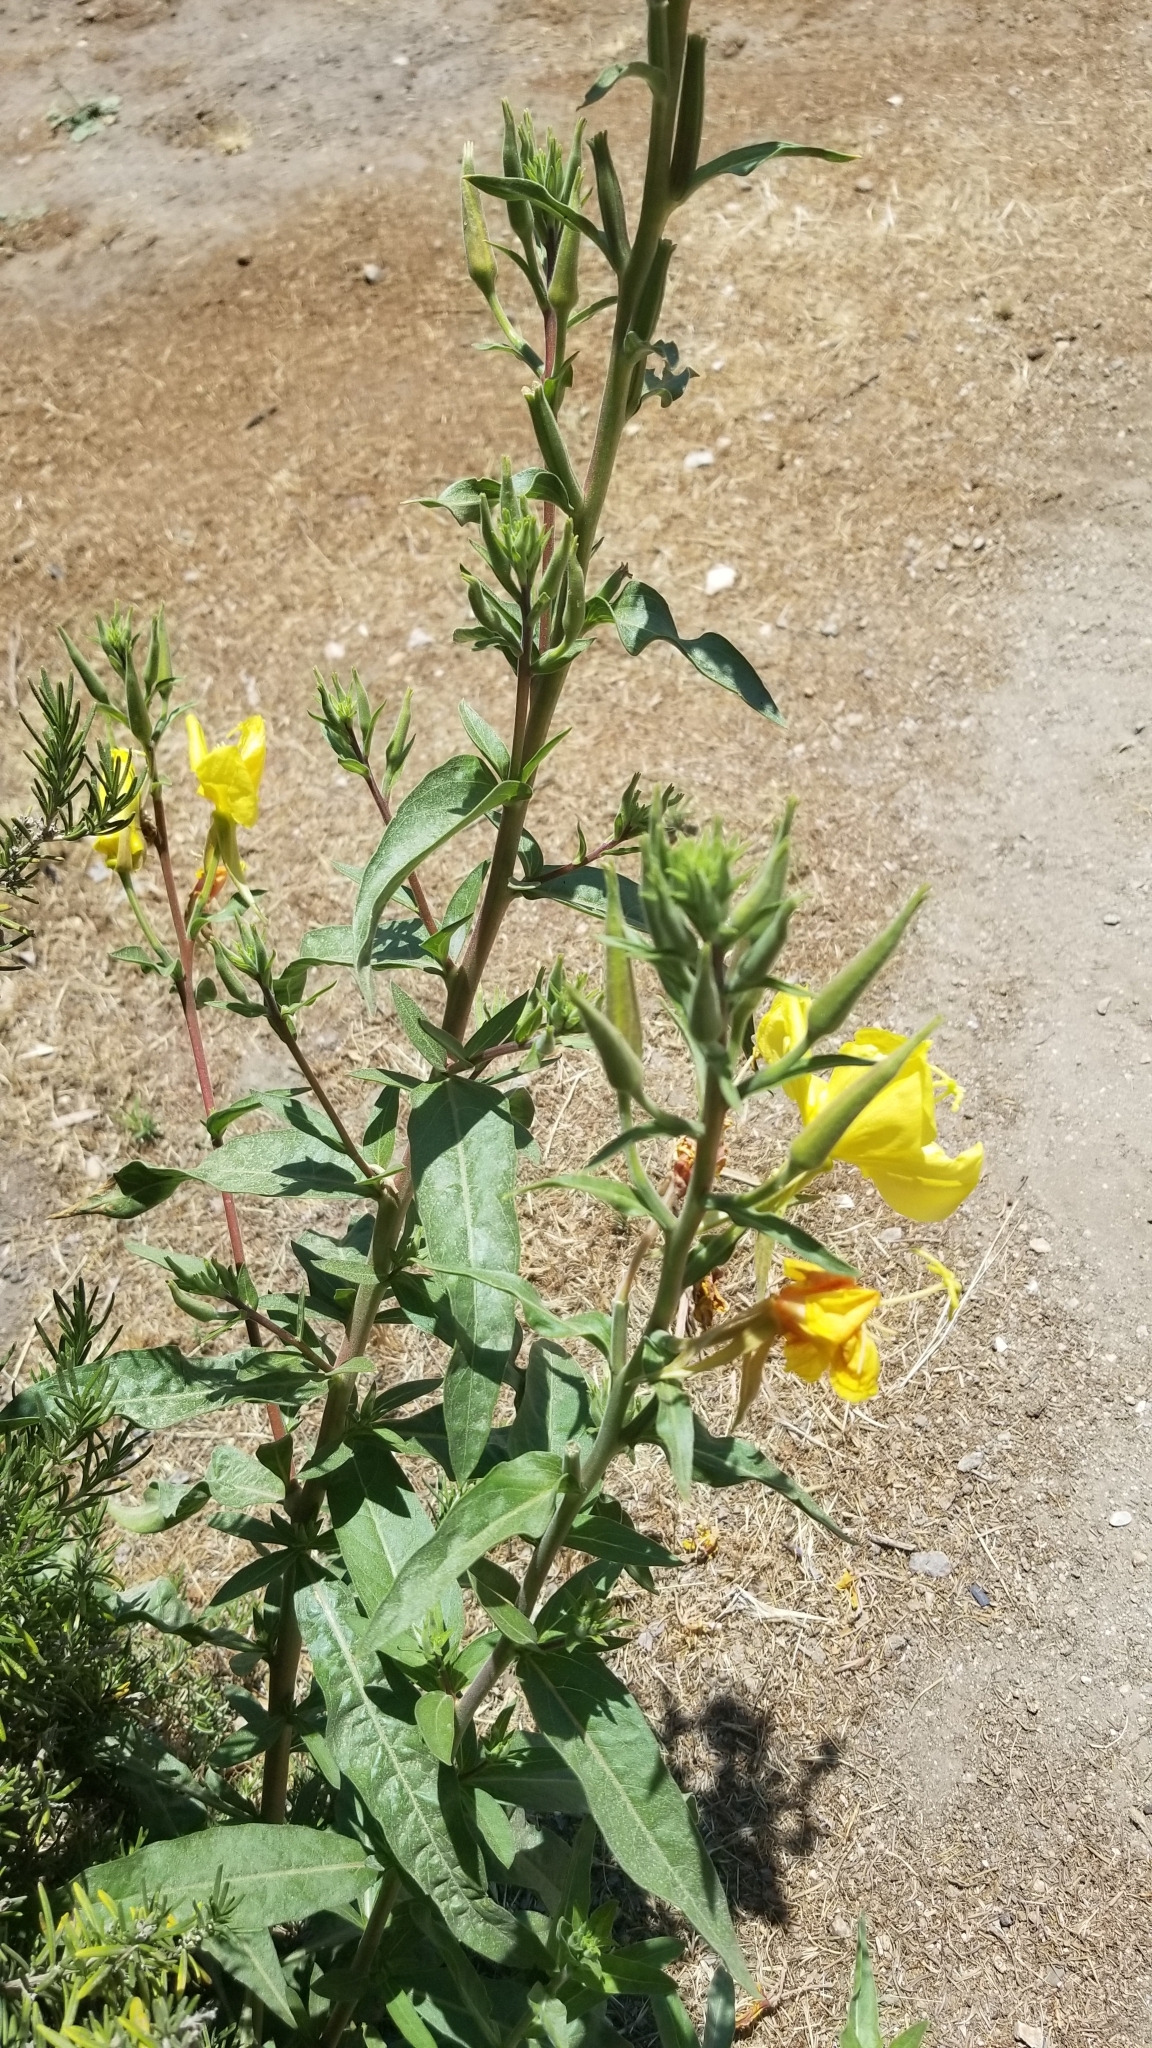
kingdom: Plantae
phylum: Tracheophyta
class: Magnoliopsida
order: Myrtales
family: Onagraceae
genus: Oenothera
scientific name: Oenothera elata
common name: Hooker's evening-primrose
